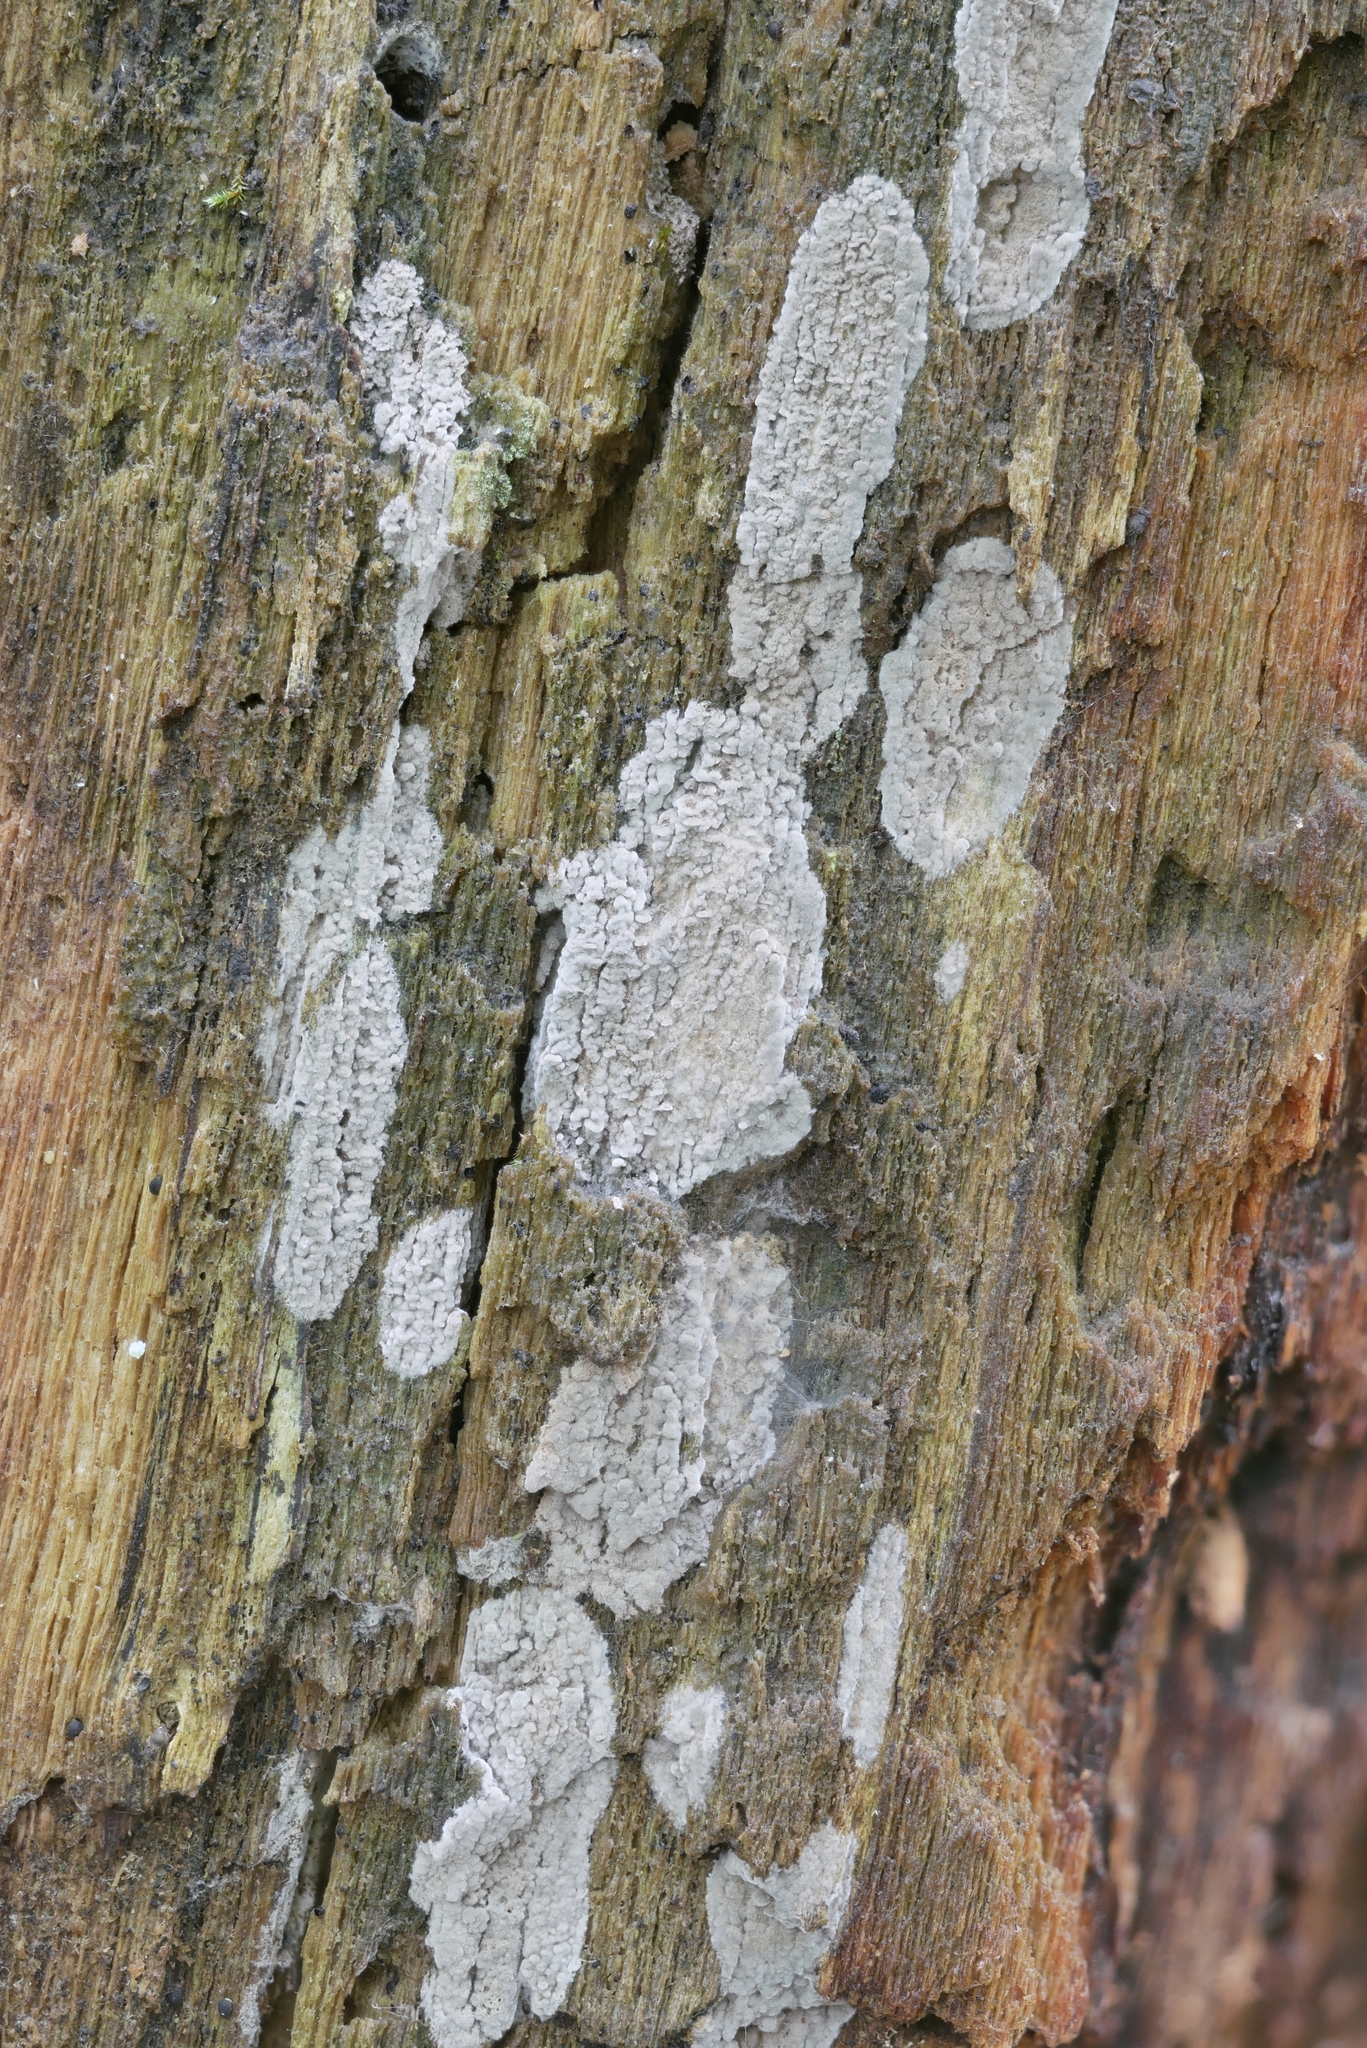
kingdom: Fungi
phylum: Ascomycota
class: Sordariomycetes
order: Xylariales
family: Xylariaceae
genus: Rosellinia
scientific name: Rosellinia subiculata
